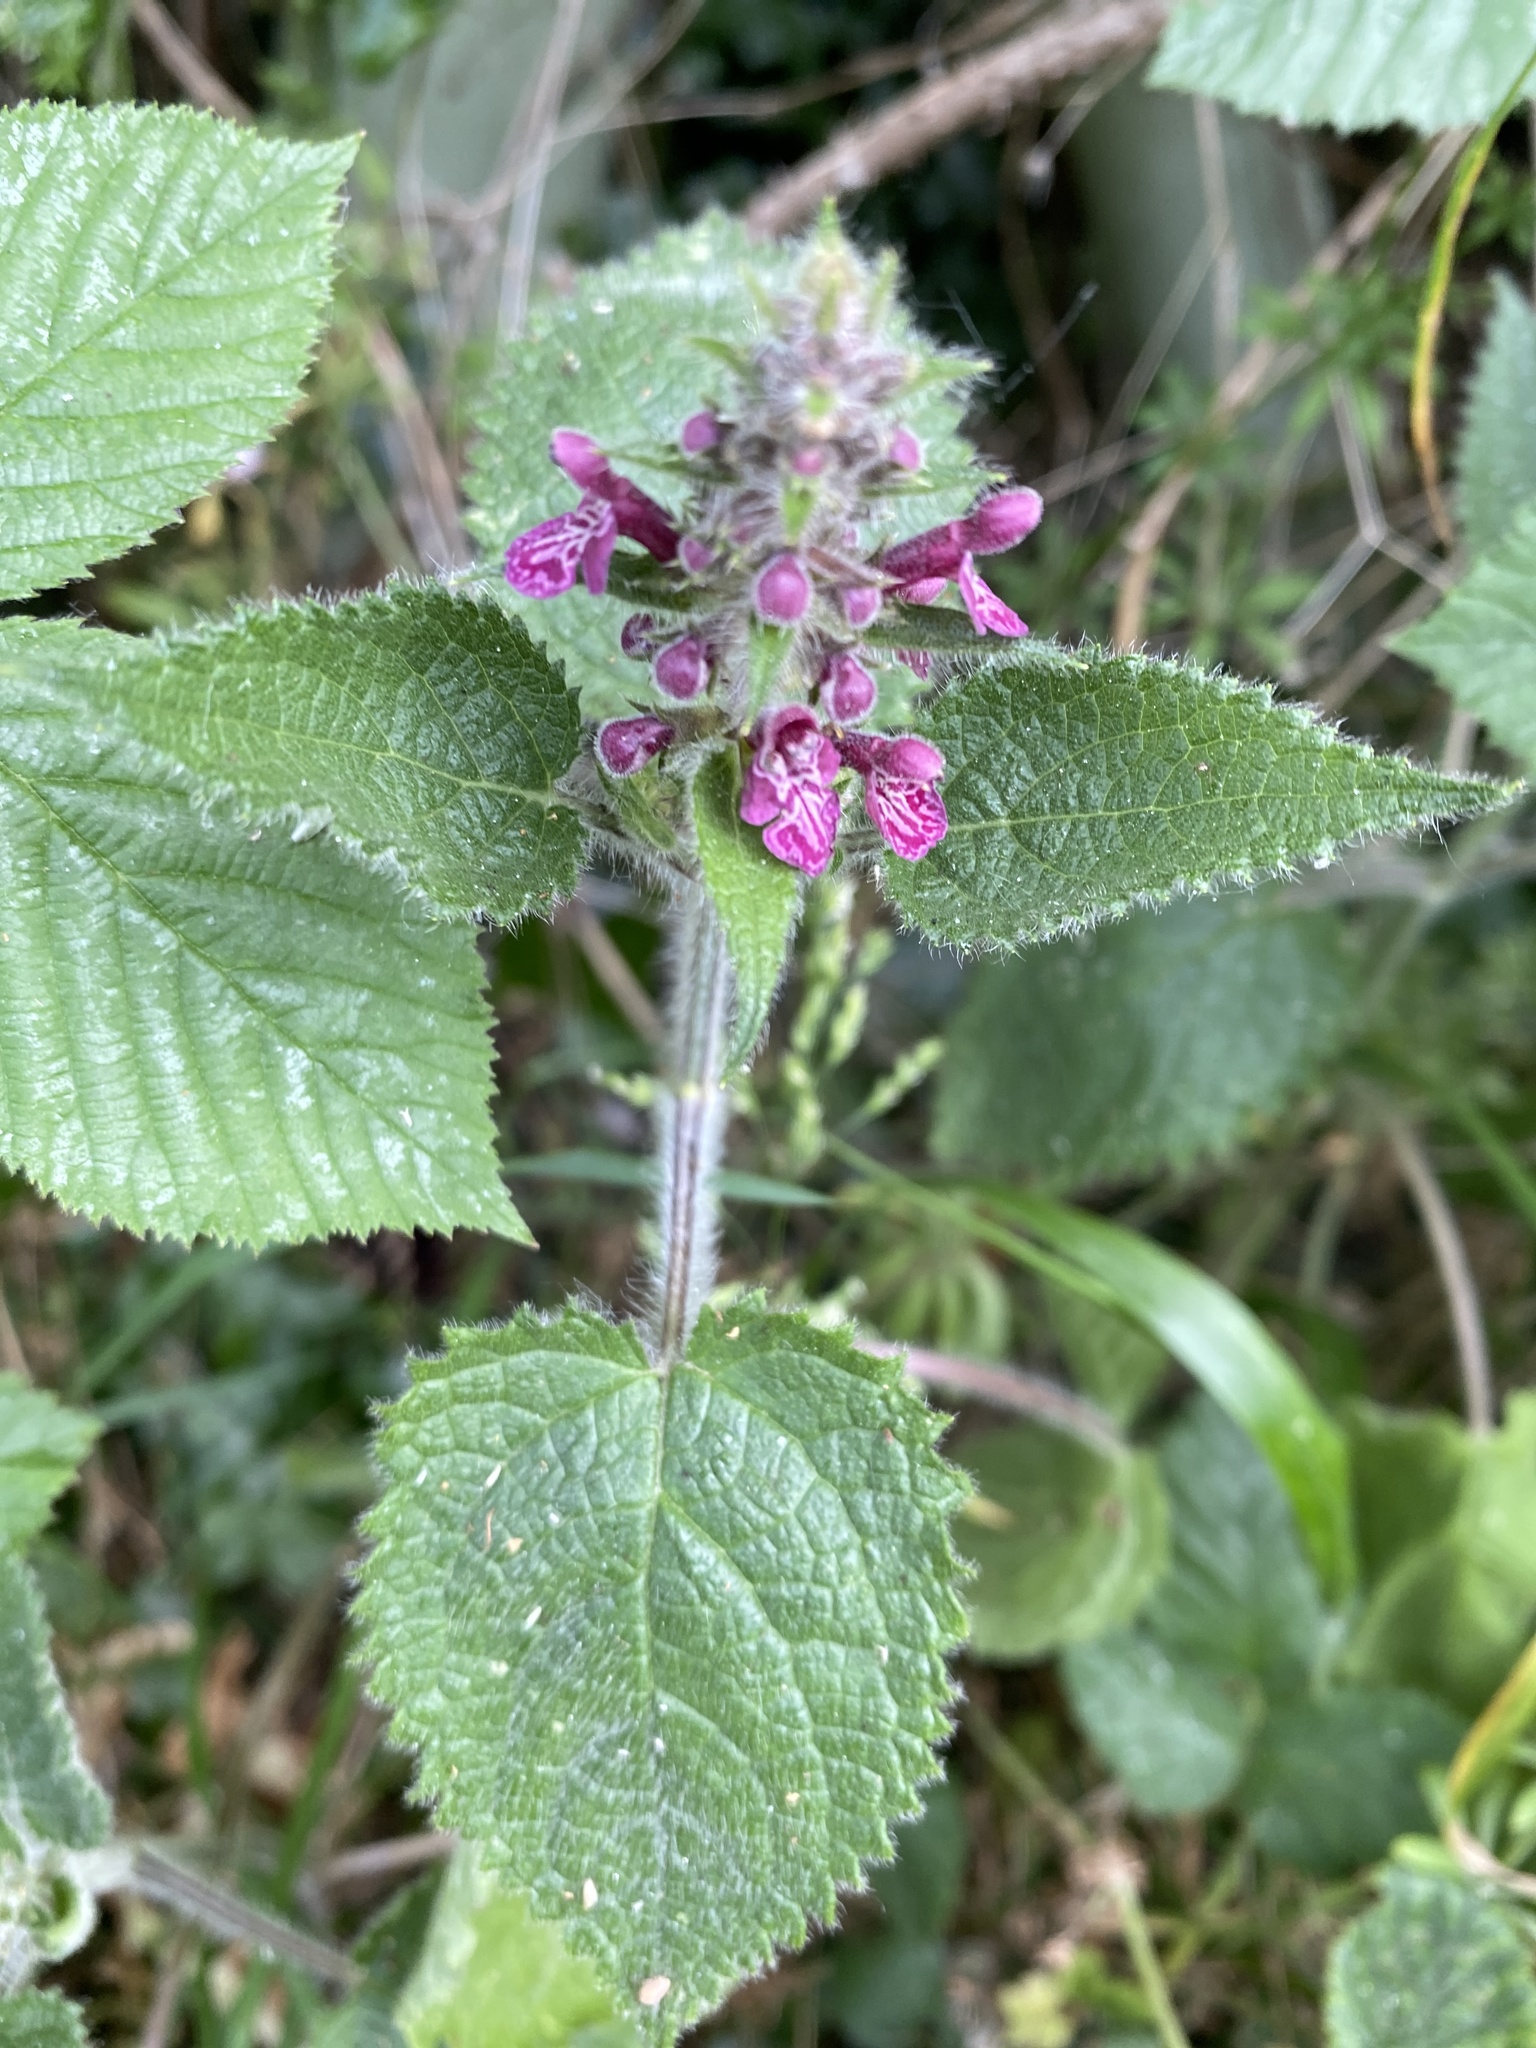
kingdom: Plantae
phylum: Tracheophyta
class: Magnoliopsida
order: Lamiales
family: Lamiaceae
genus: Stachys
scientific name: Stachys sylvatica
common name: Hedge woundwort
